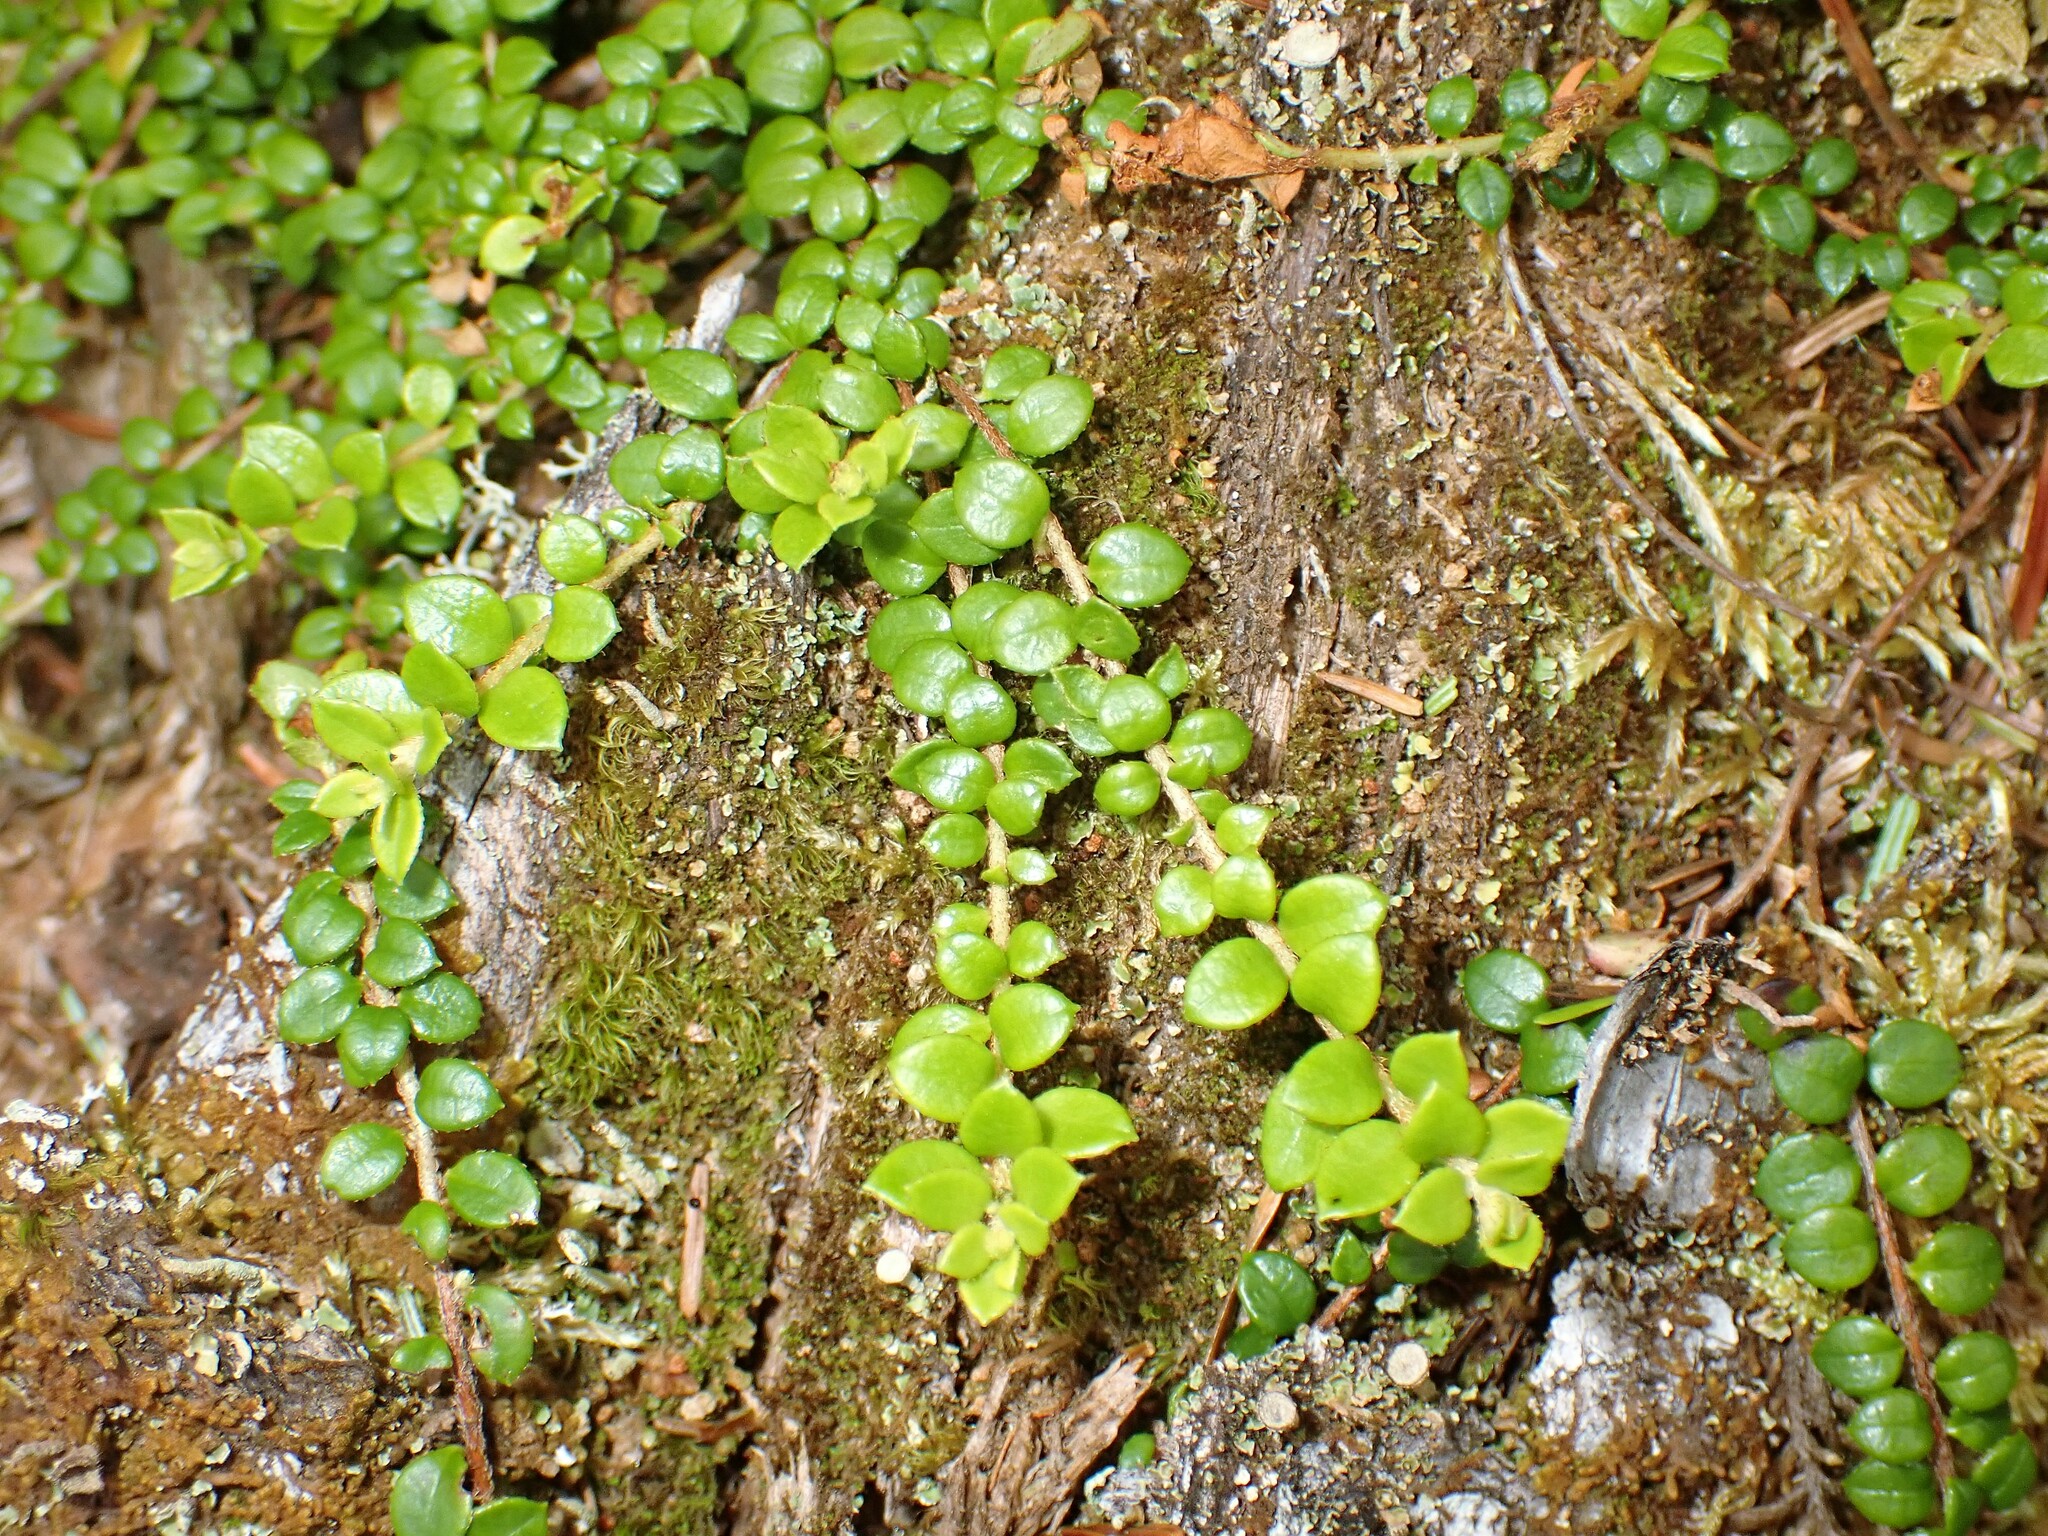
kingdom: Plantae
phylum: Tracheophyta
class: Magnoliopsida
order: Ericales
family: Ericaceae
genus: Gaultheria
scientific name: Gaultheria hispidula
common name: Cancer wintergreen
